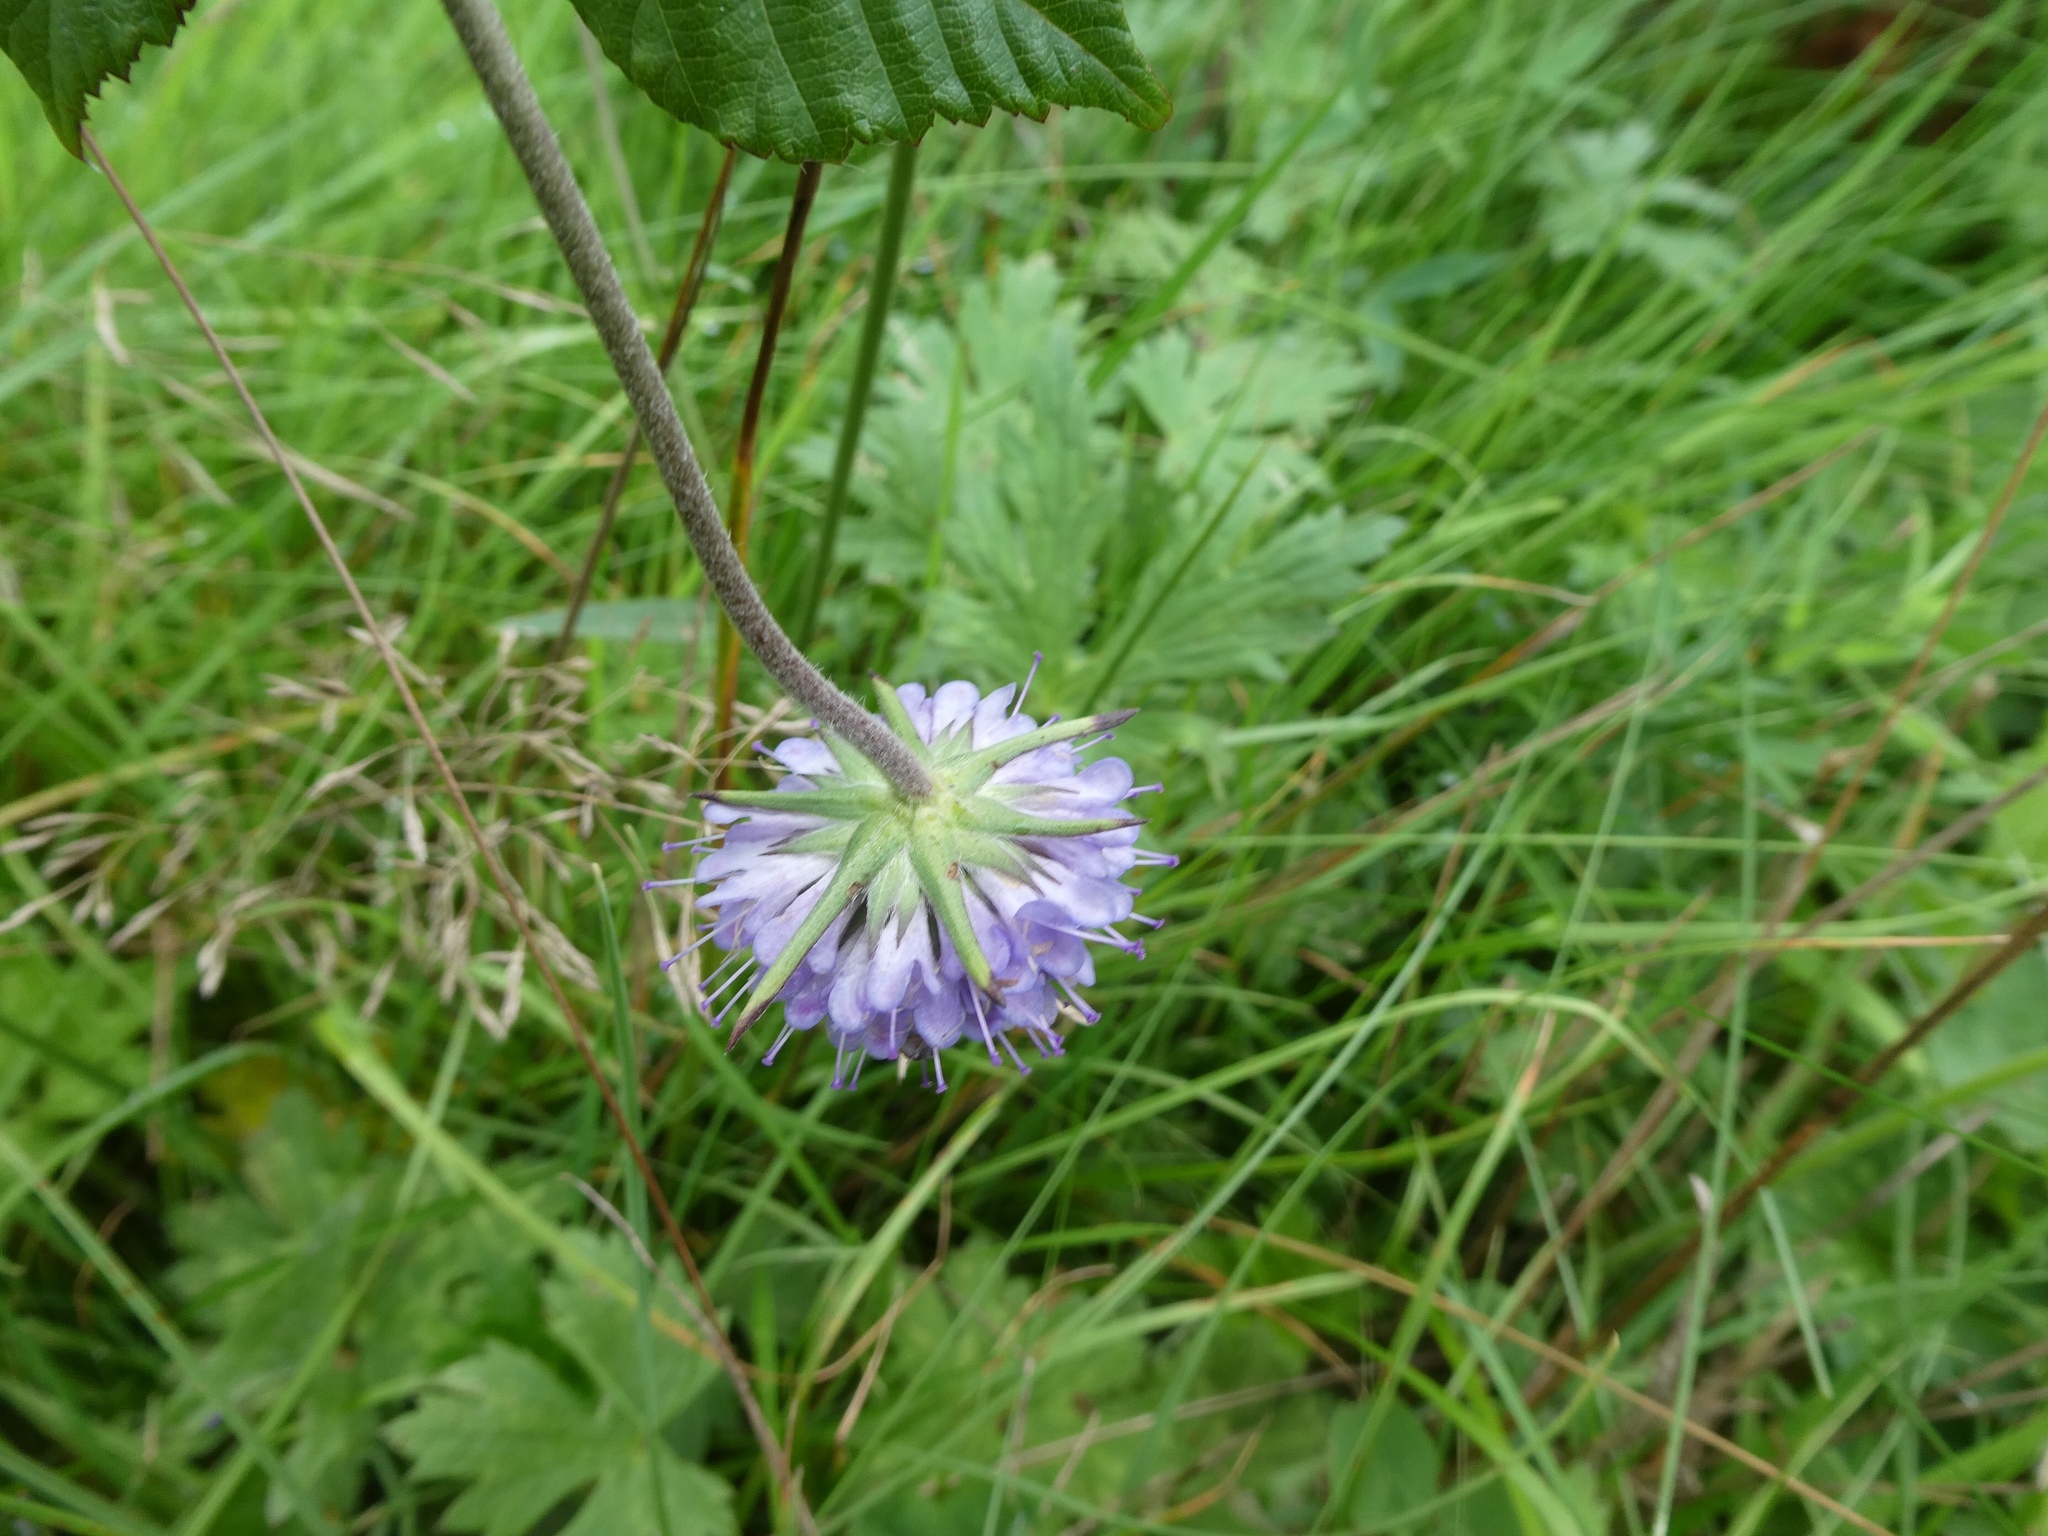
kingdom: Plantae
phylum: Tracheophyta
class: Magnoliopsida
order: Dipsacales
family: Caprifoliaceae
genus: Succisa
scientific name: Succisa pratensis
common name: Devil's-bit
